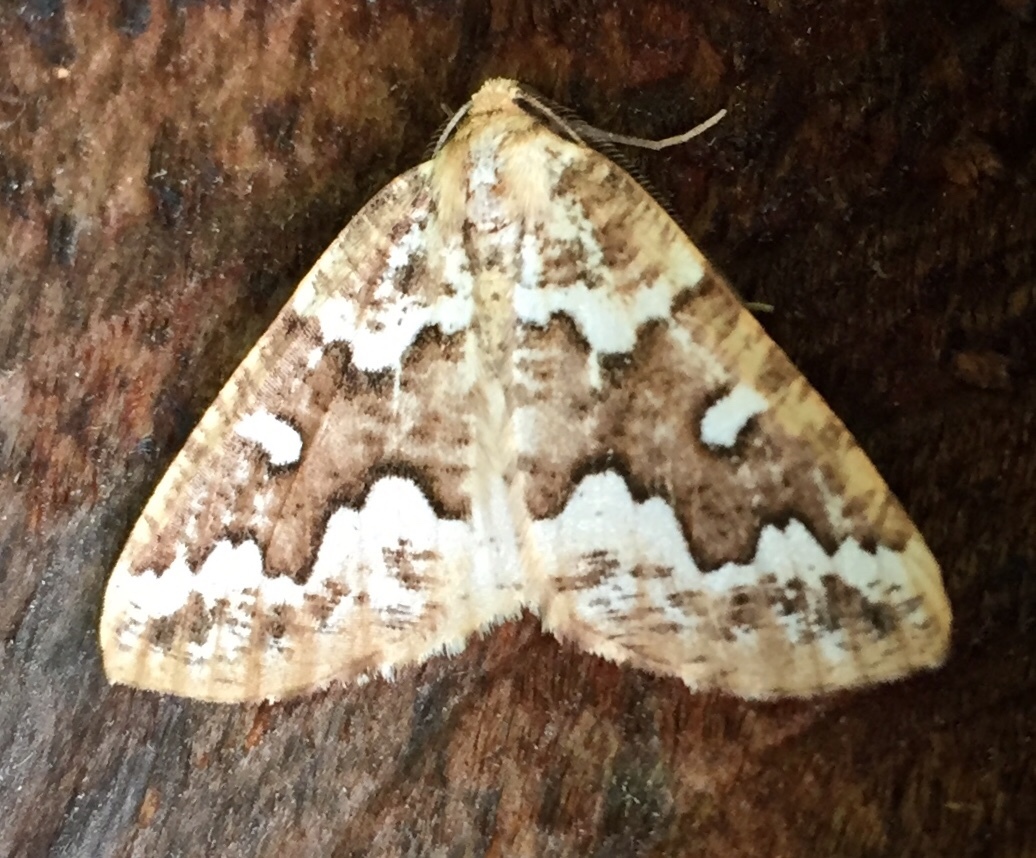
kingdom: Animalia
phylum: Arthropoda
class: Insecta
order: Lepidoptera
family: Geometridae
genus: Caripeta
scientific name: Caripeta divisata
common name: Gray spruce looper
